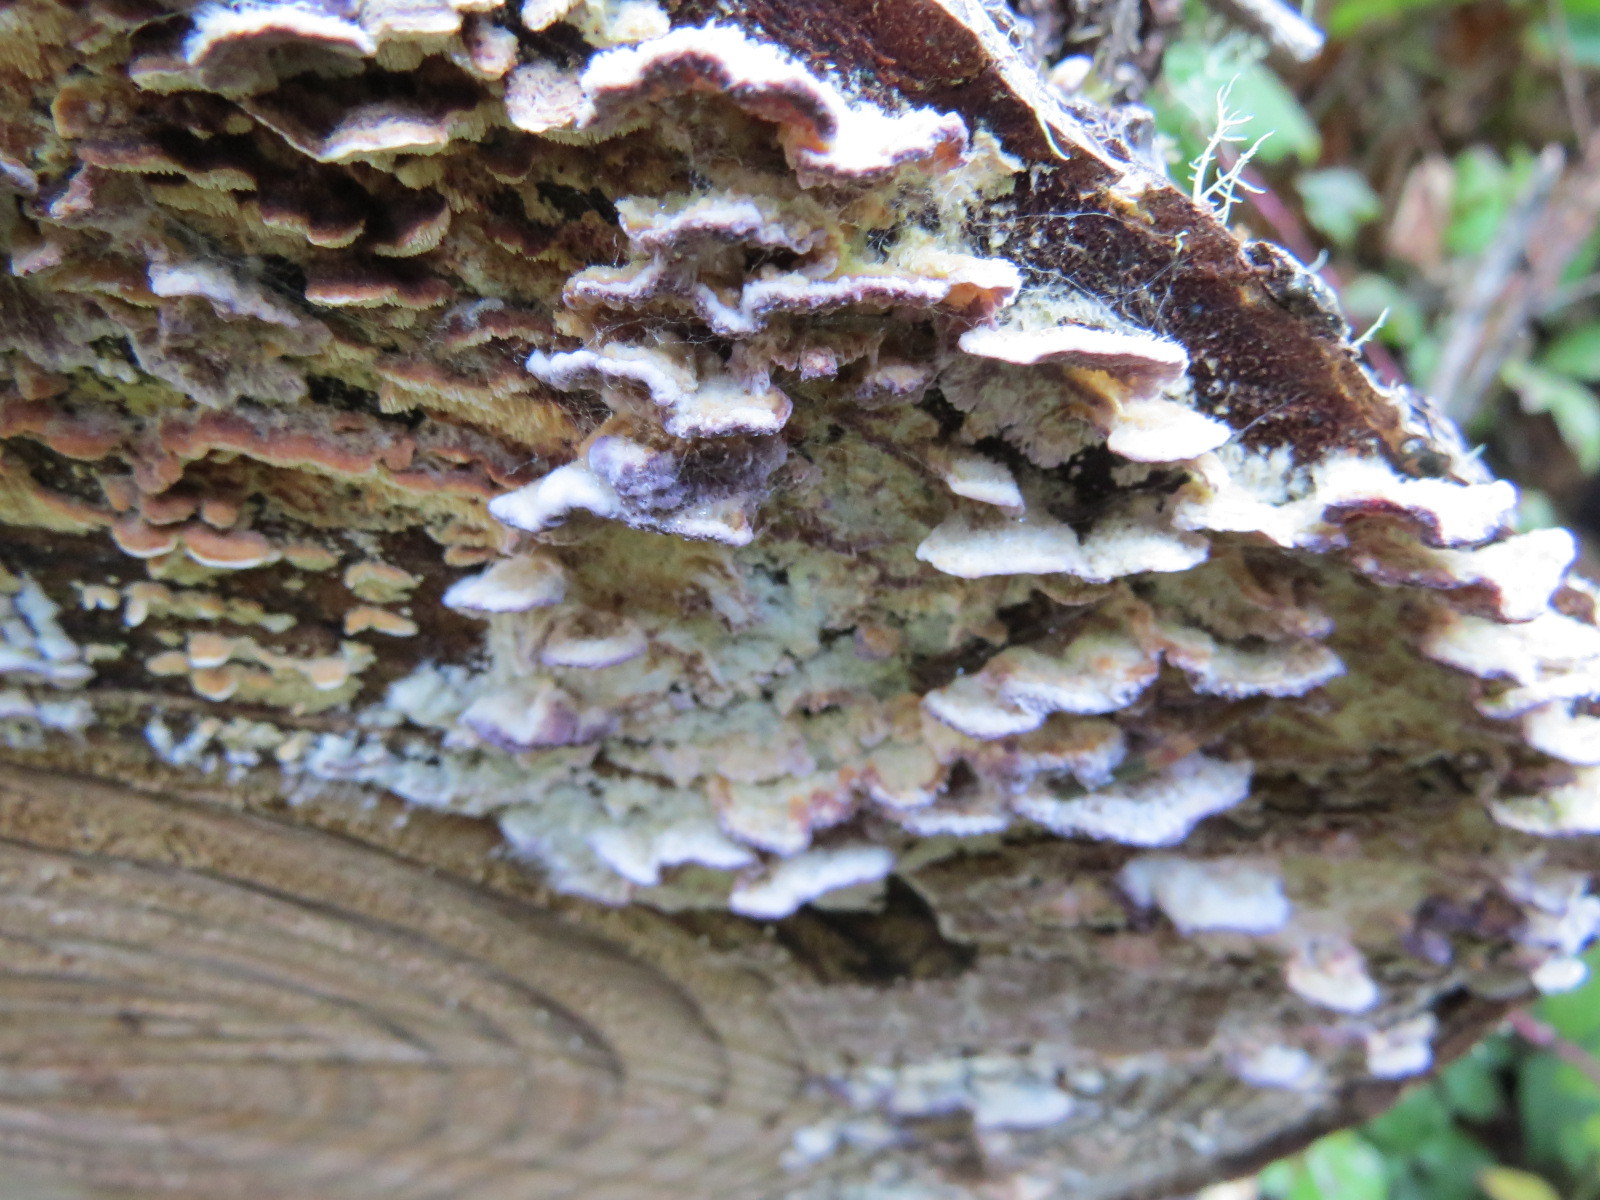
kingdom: Fungi
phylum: Basidiomycota
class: Agaricomycetes
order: Hymenochaetales
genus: Trichaptum
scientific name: Trichaptum abietinum
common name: Purplepore bracket
